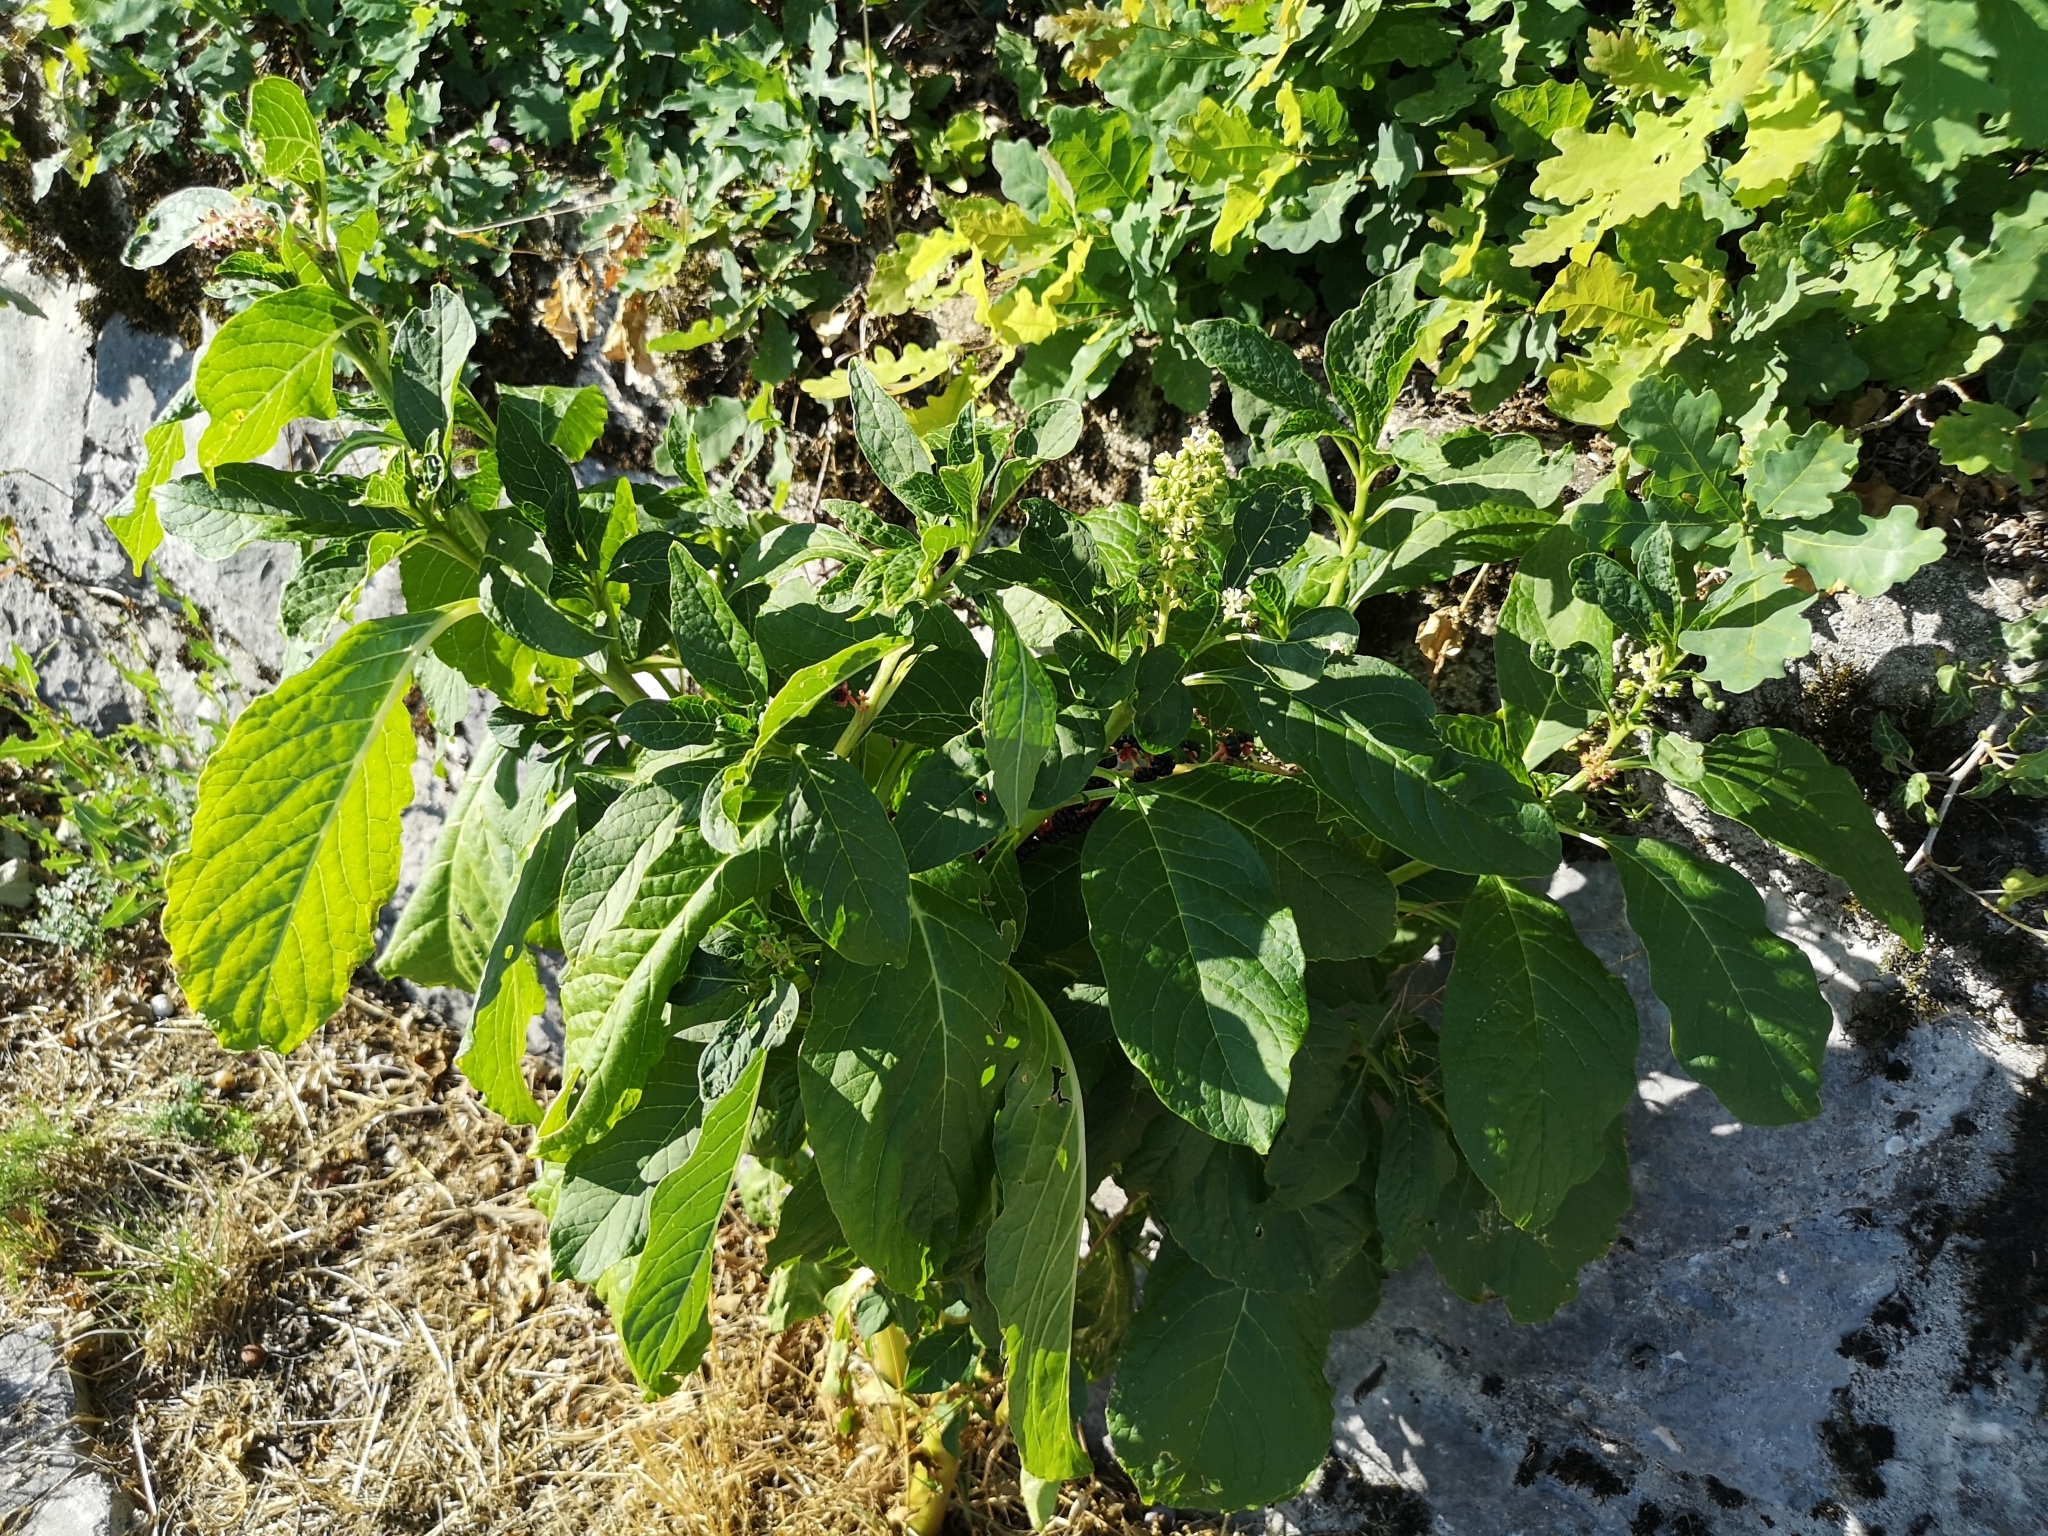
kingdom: Plantae
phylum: Tracheophyta
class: Magnoliopsida
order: Caryophyllales
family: Phytolaccaceae
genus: Phytolacca
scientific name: Phytolacca acinosa
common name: Indian pokeweed
